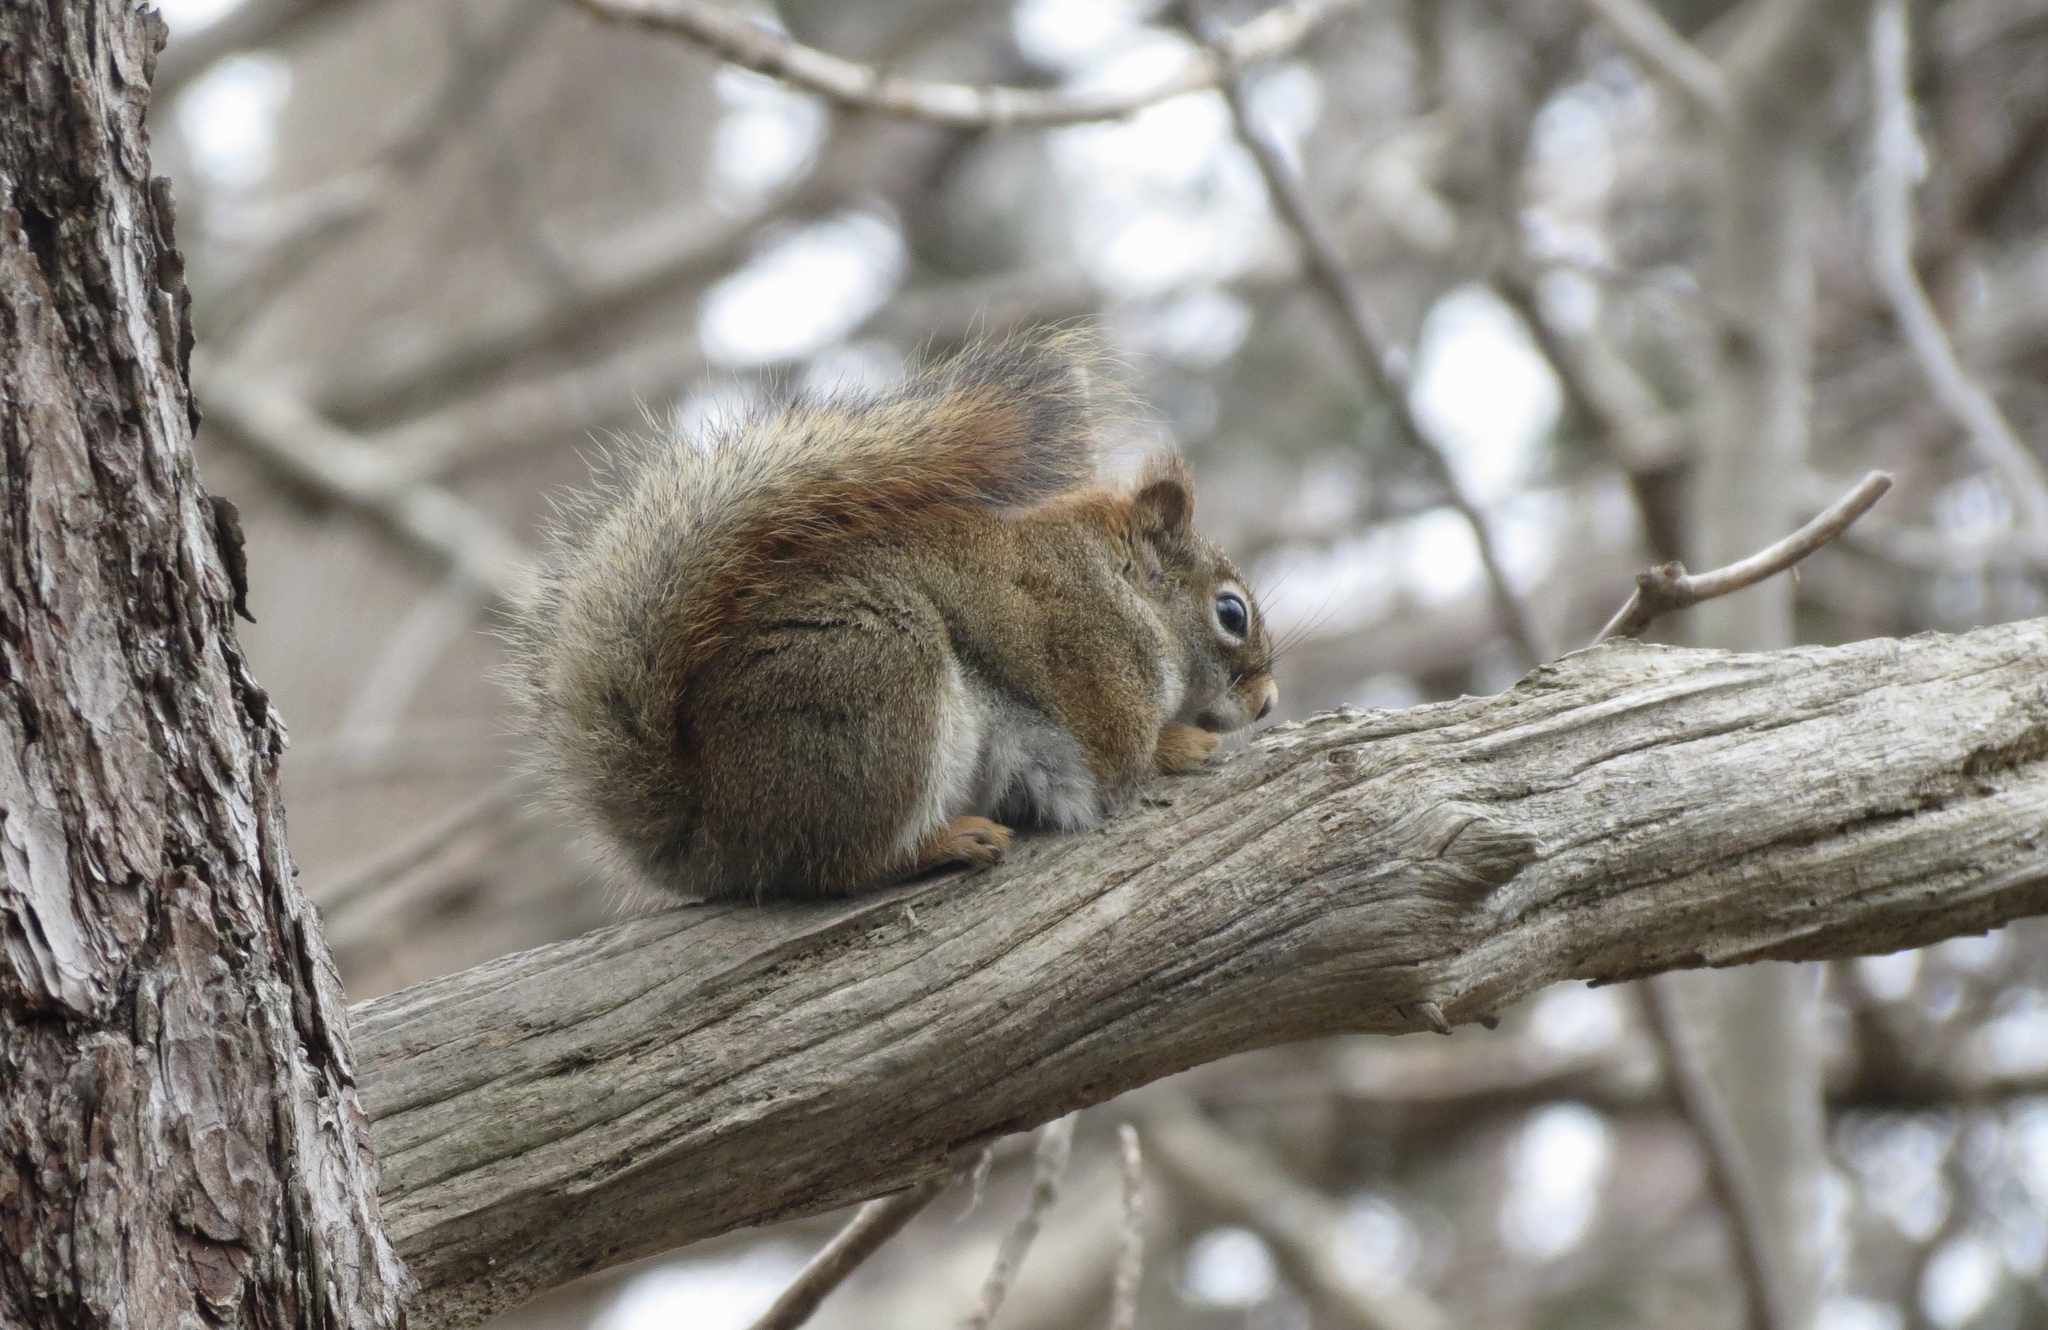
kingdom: Animalia
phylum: Chordata
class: Mammalia
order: Rodentia
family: Sciuridae
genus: Tamiasciurus
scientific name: Tamiasciurus hudsonicus
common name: Red squirrel
